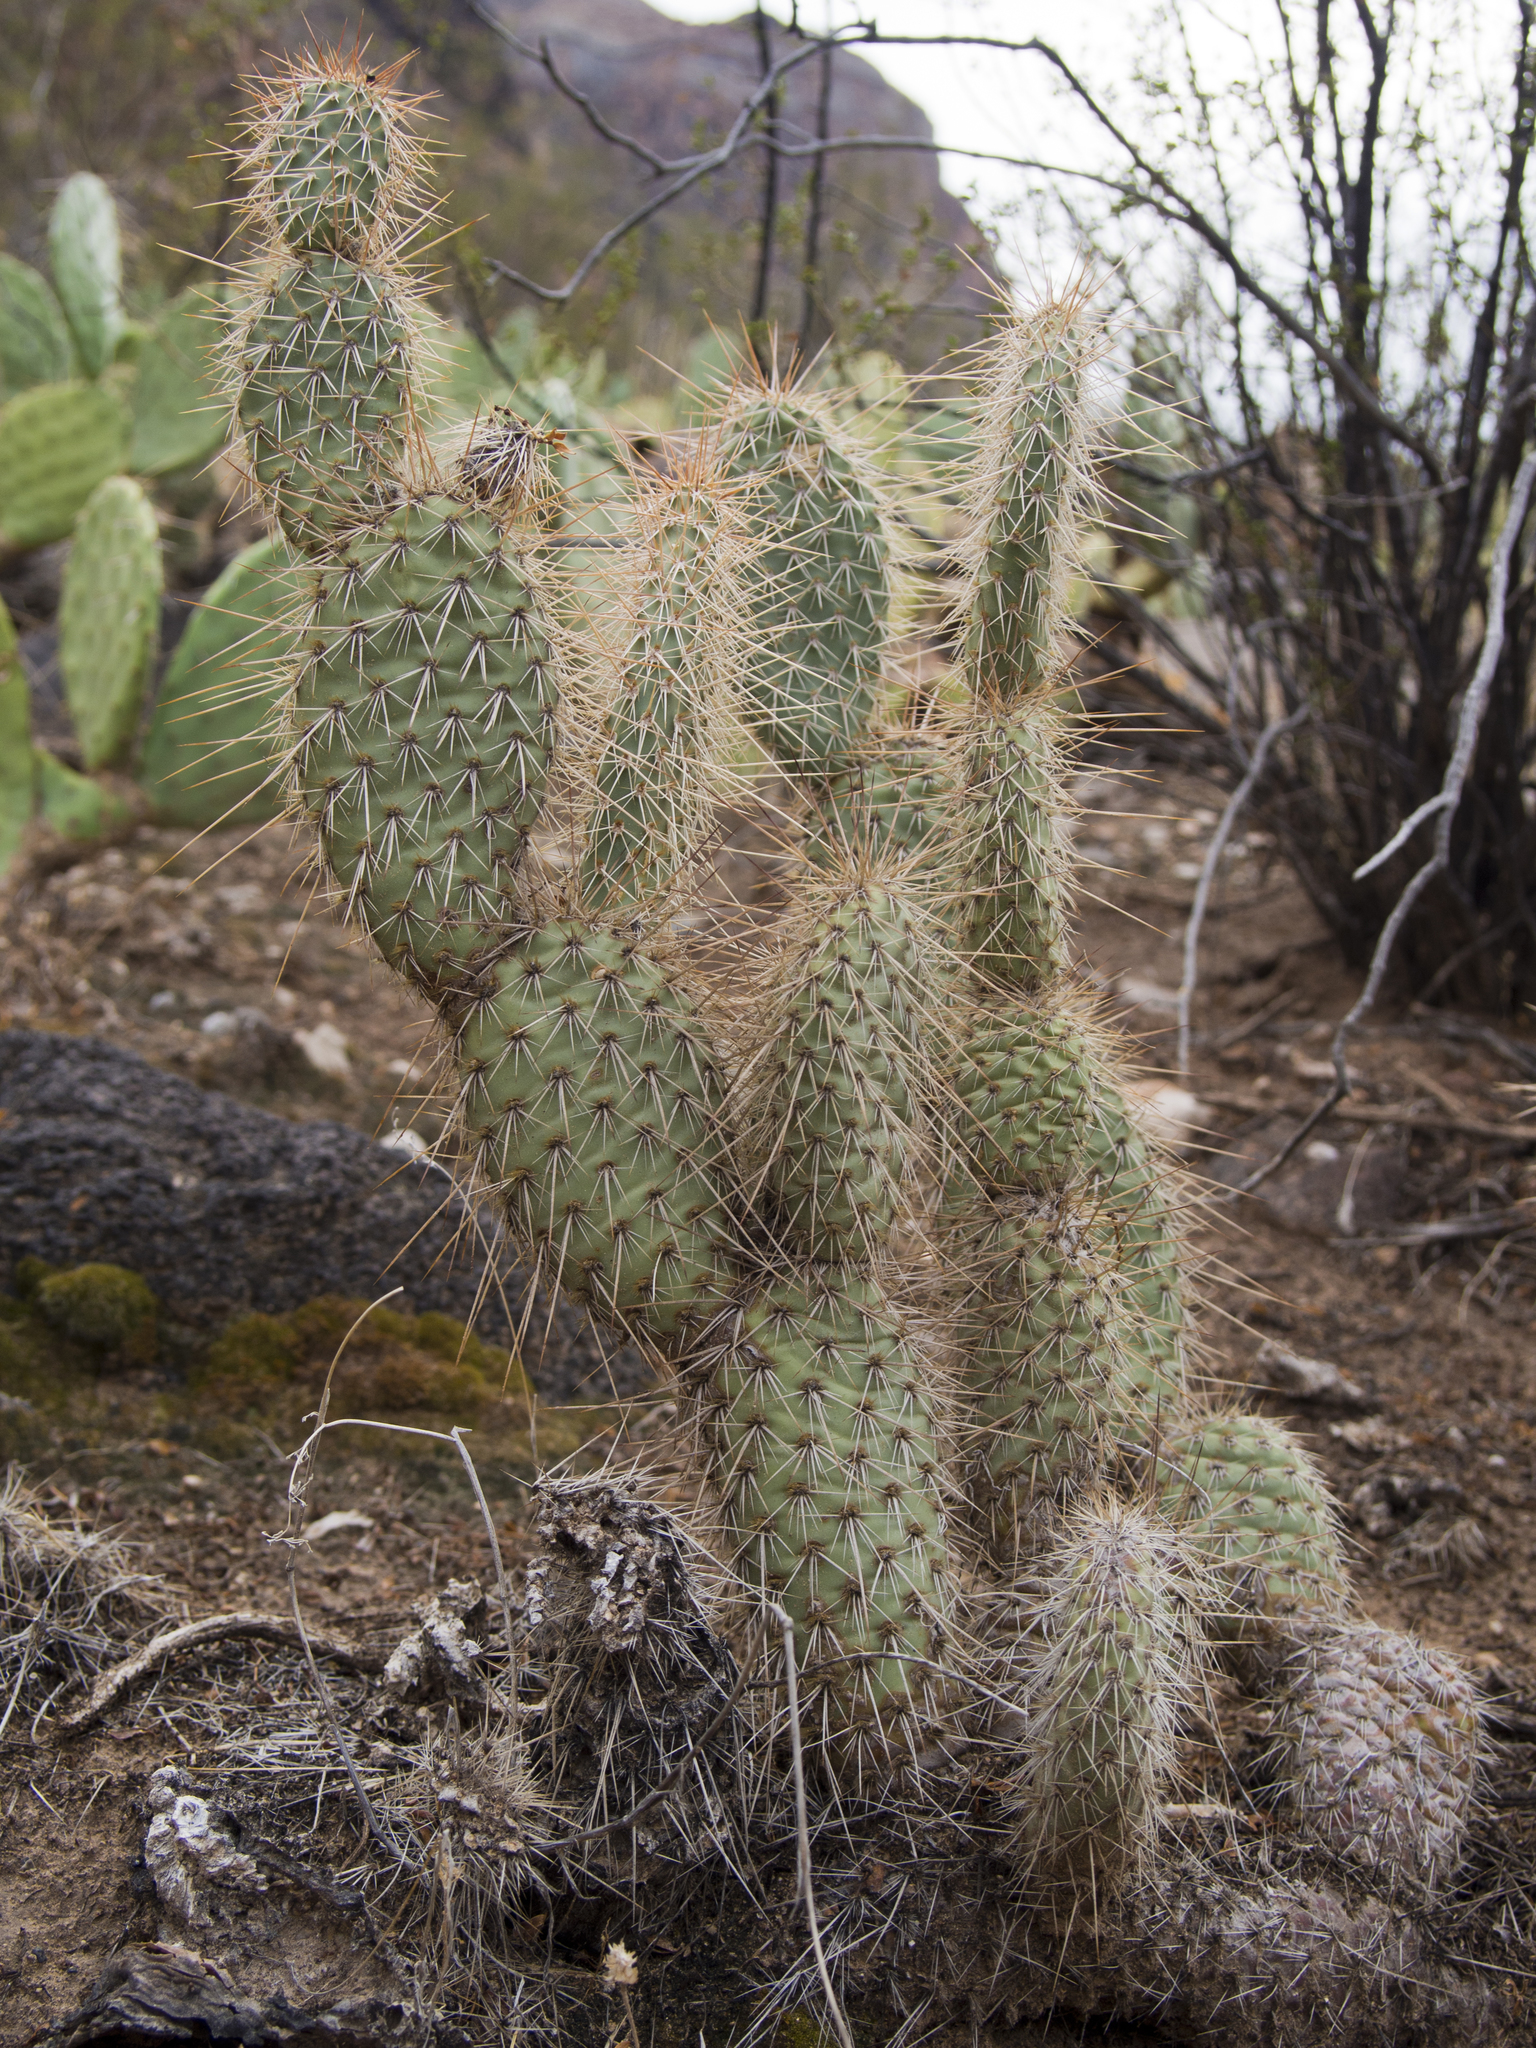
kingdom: Plantae
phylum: Tracheophyta
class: Magnoliopsida
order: Caryophyllales
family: Cactaceae
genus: Opuntia
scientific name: Opuntia polyacantha
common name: Plains prickly-pear
